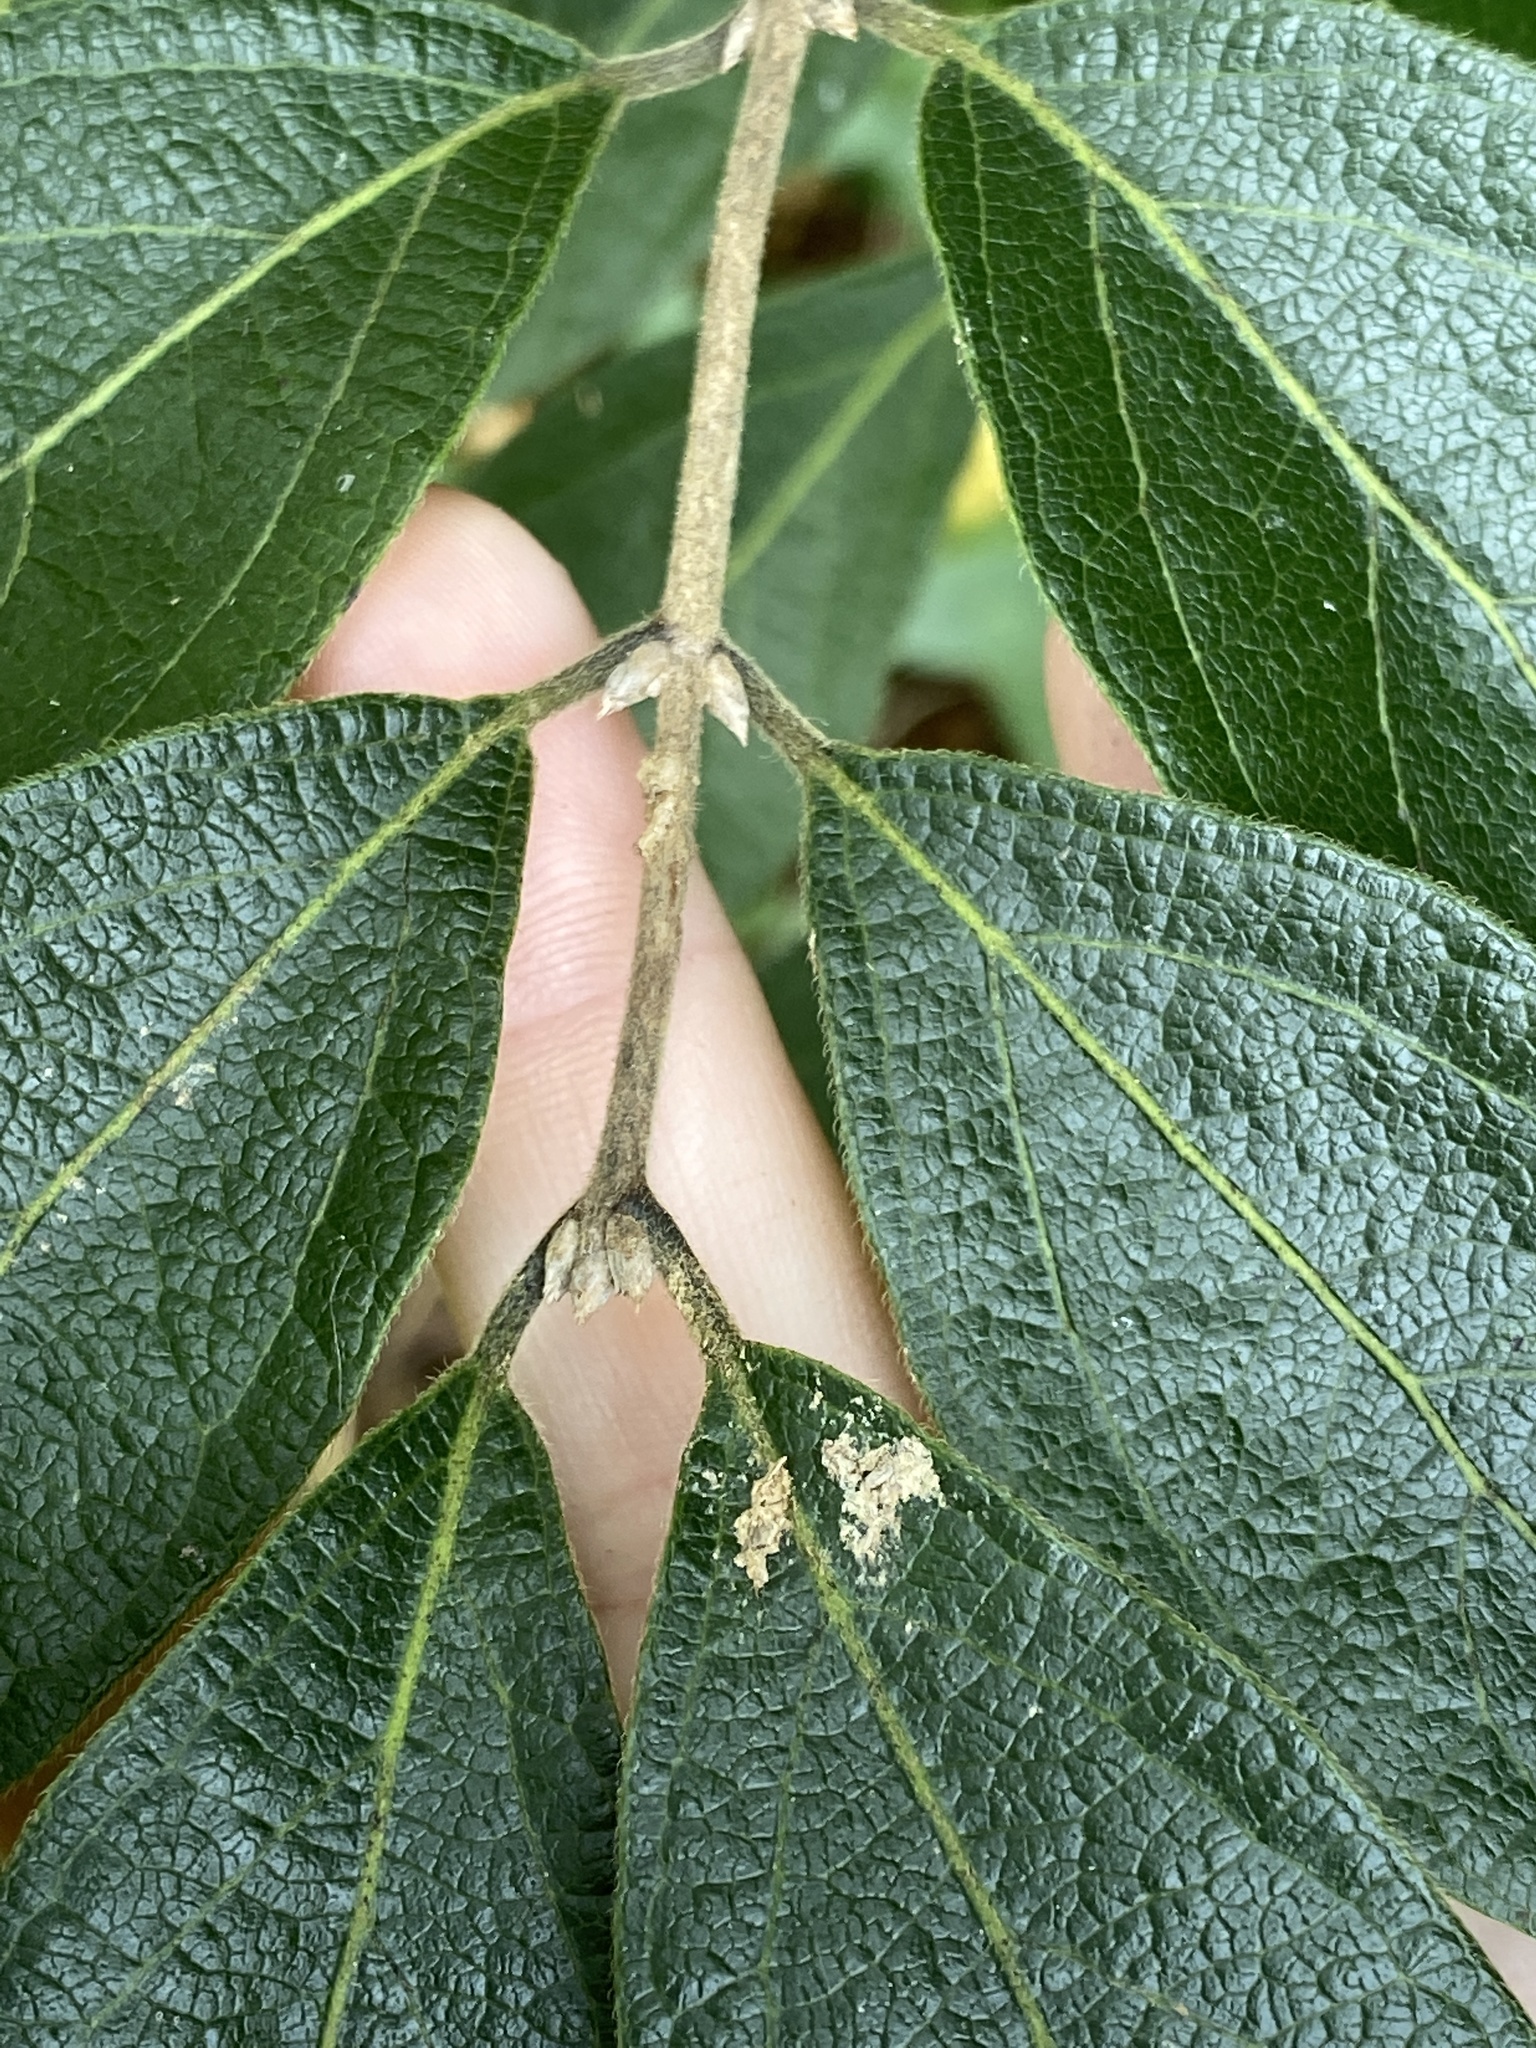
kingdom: Plantae
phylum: Tracheophyta
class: Magnoliopsida
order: Dipsacales
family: Caprifoliaceae
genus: Lonicera
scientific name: Lonicera maackii
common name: Amur honeysuckle
